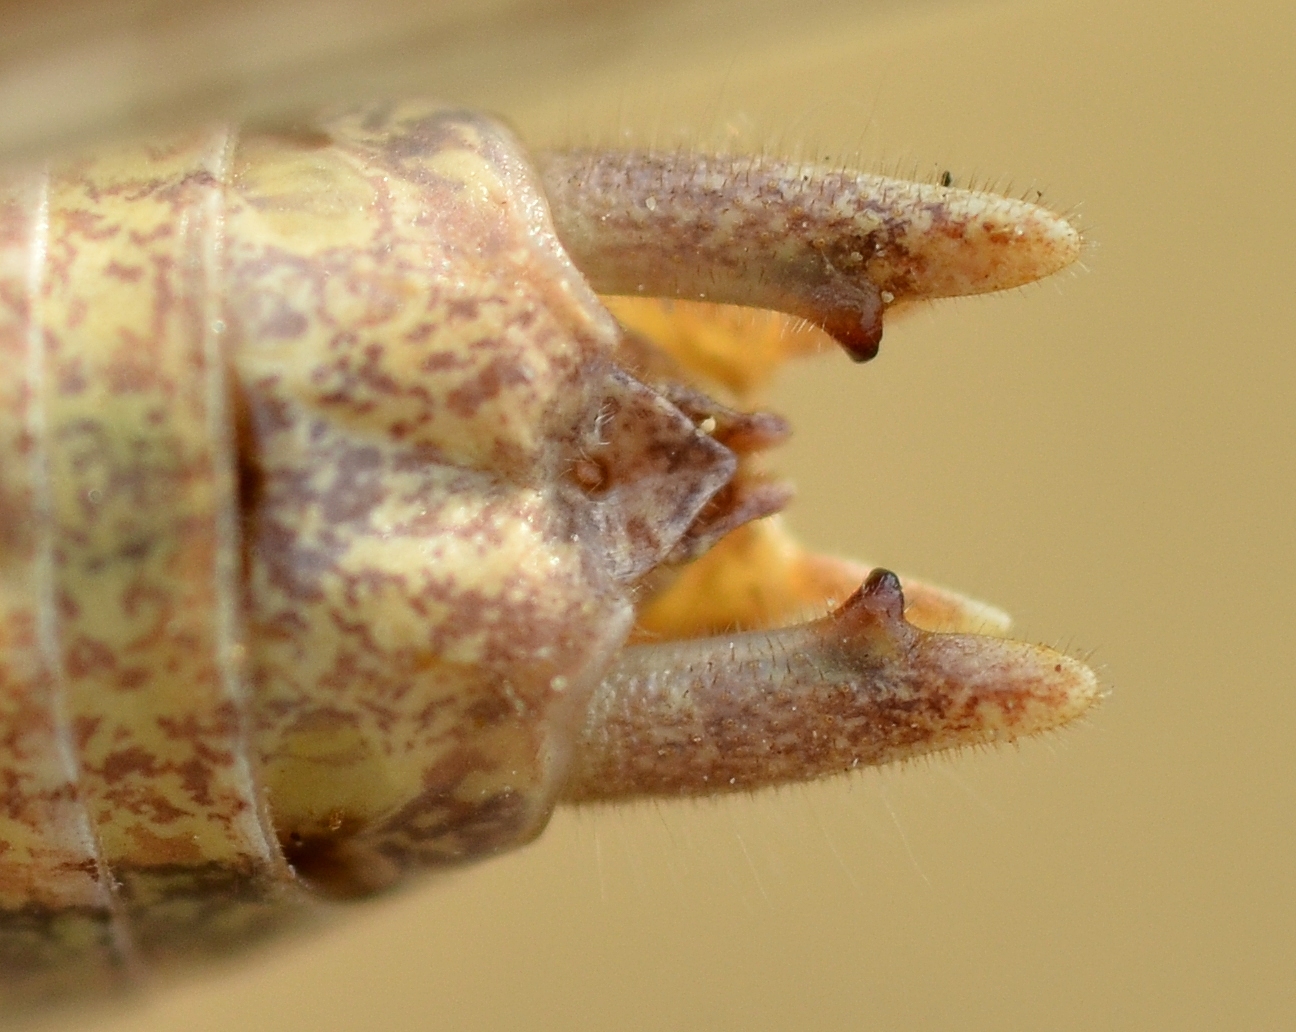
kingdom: Animalia
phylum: Arthropoda
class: Insecta
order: Orthoptera
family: Tettigoniidae
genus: Platycleis
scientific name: Platycleis falx
